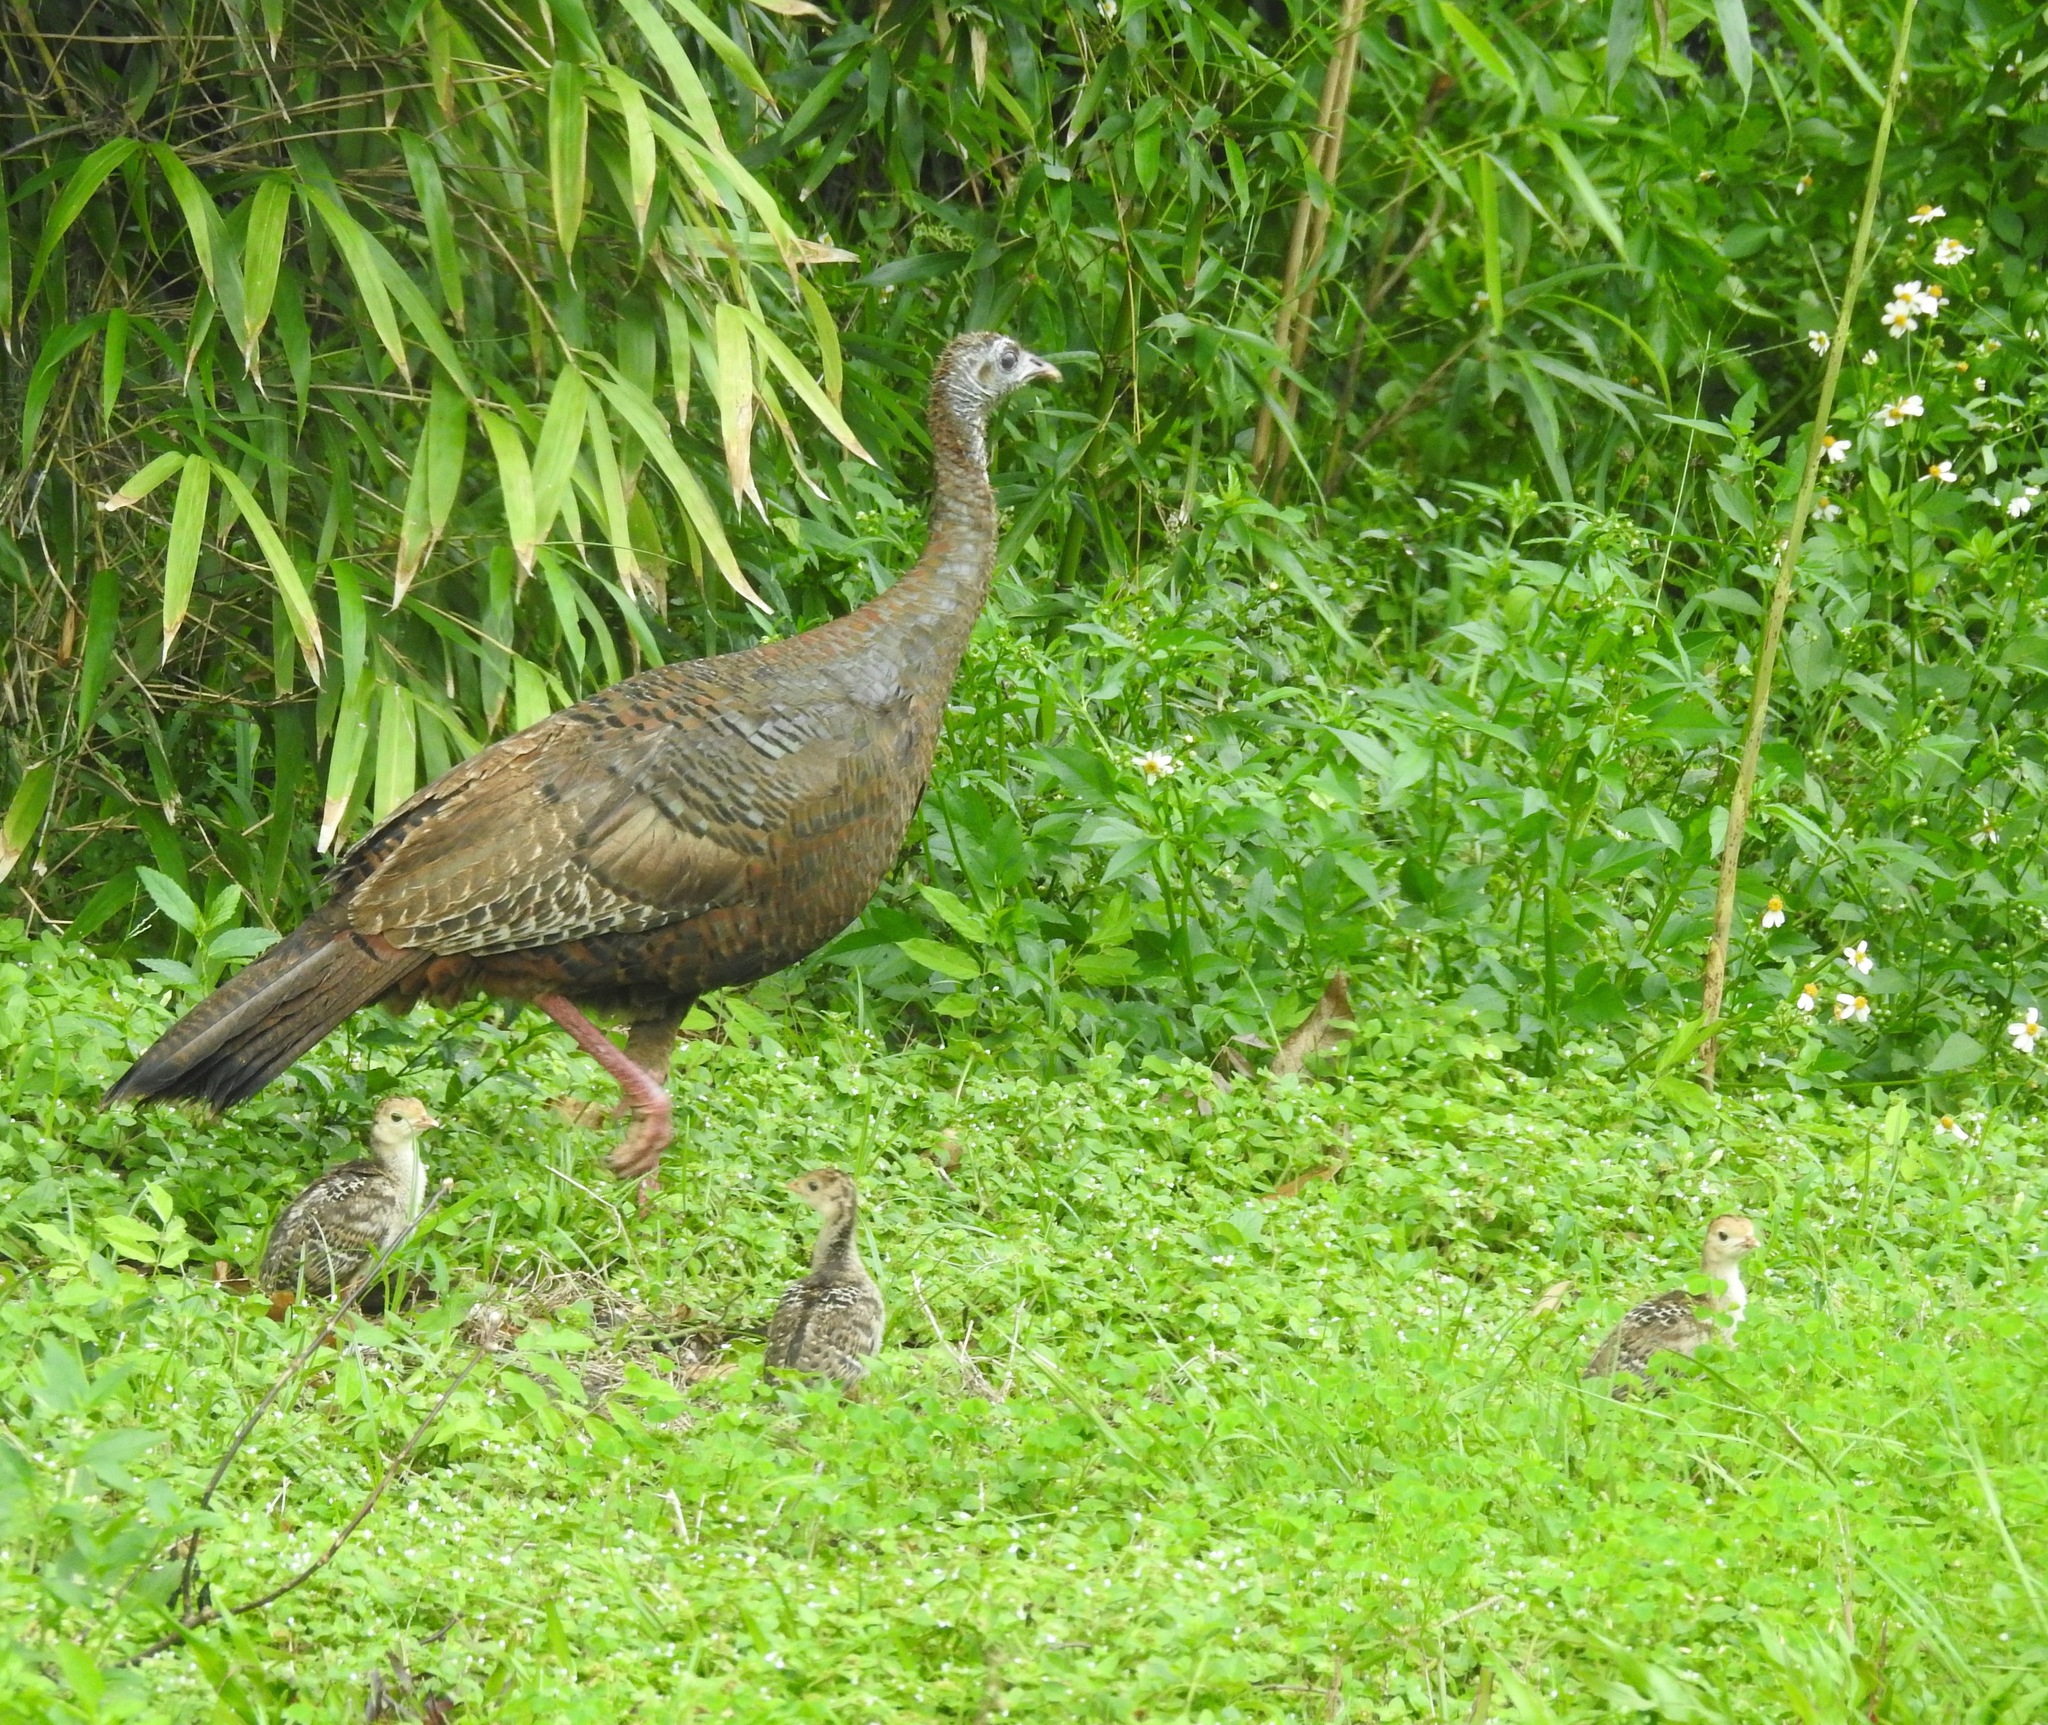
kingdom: Animalia
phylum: Chordata
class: Aves
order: Galliformes
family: Phasianidae
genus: Meleagris
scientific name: Meleagris gallopavo
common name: Wild turkey
